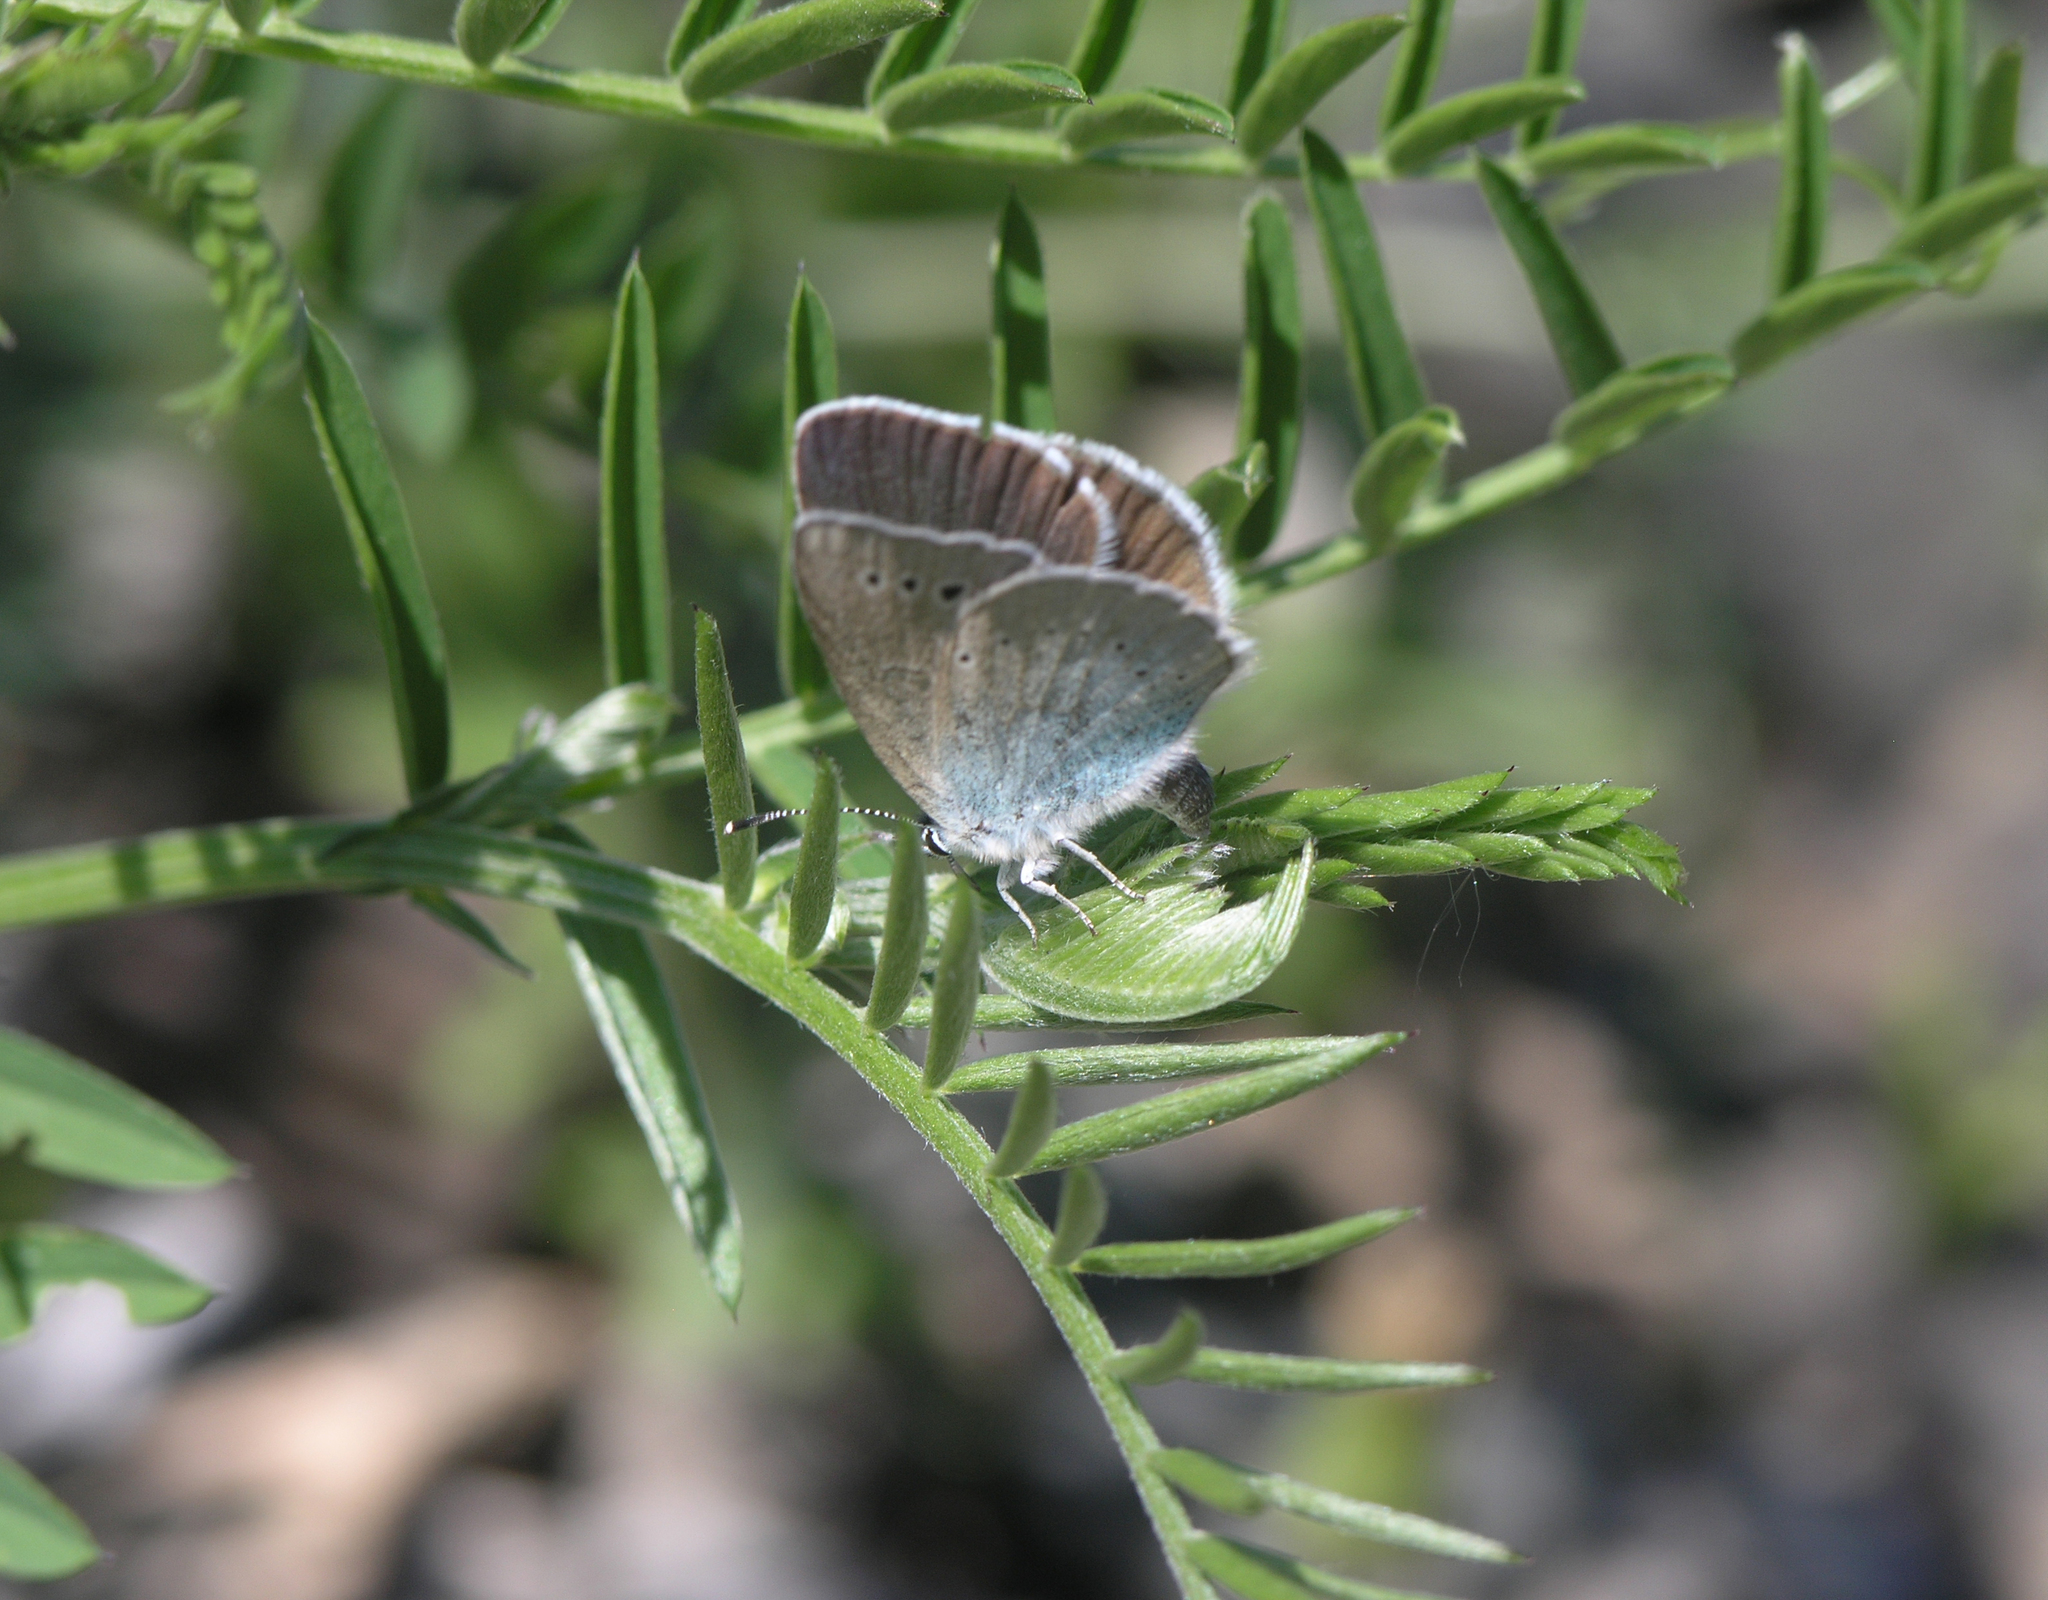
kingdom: Plantae
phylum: Tracheophyta
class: Magnoliopsida
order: Fabales
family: Fabaceae
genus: Vicia
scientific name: Vicia tenuifolia
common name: Fine-leaved vetch
